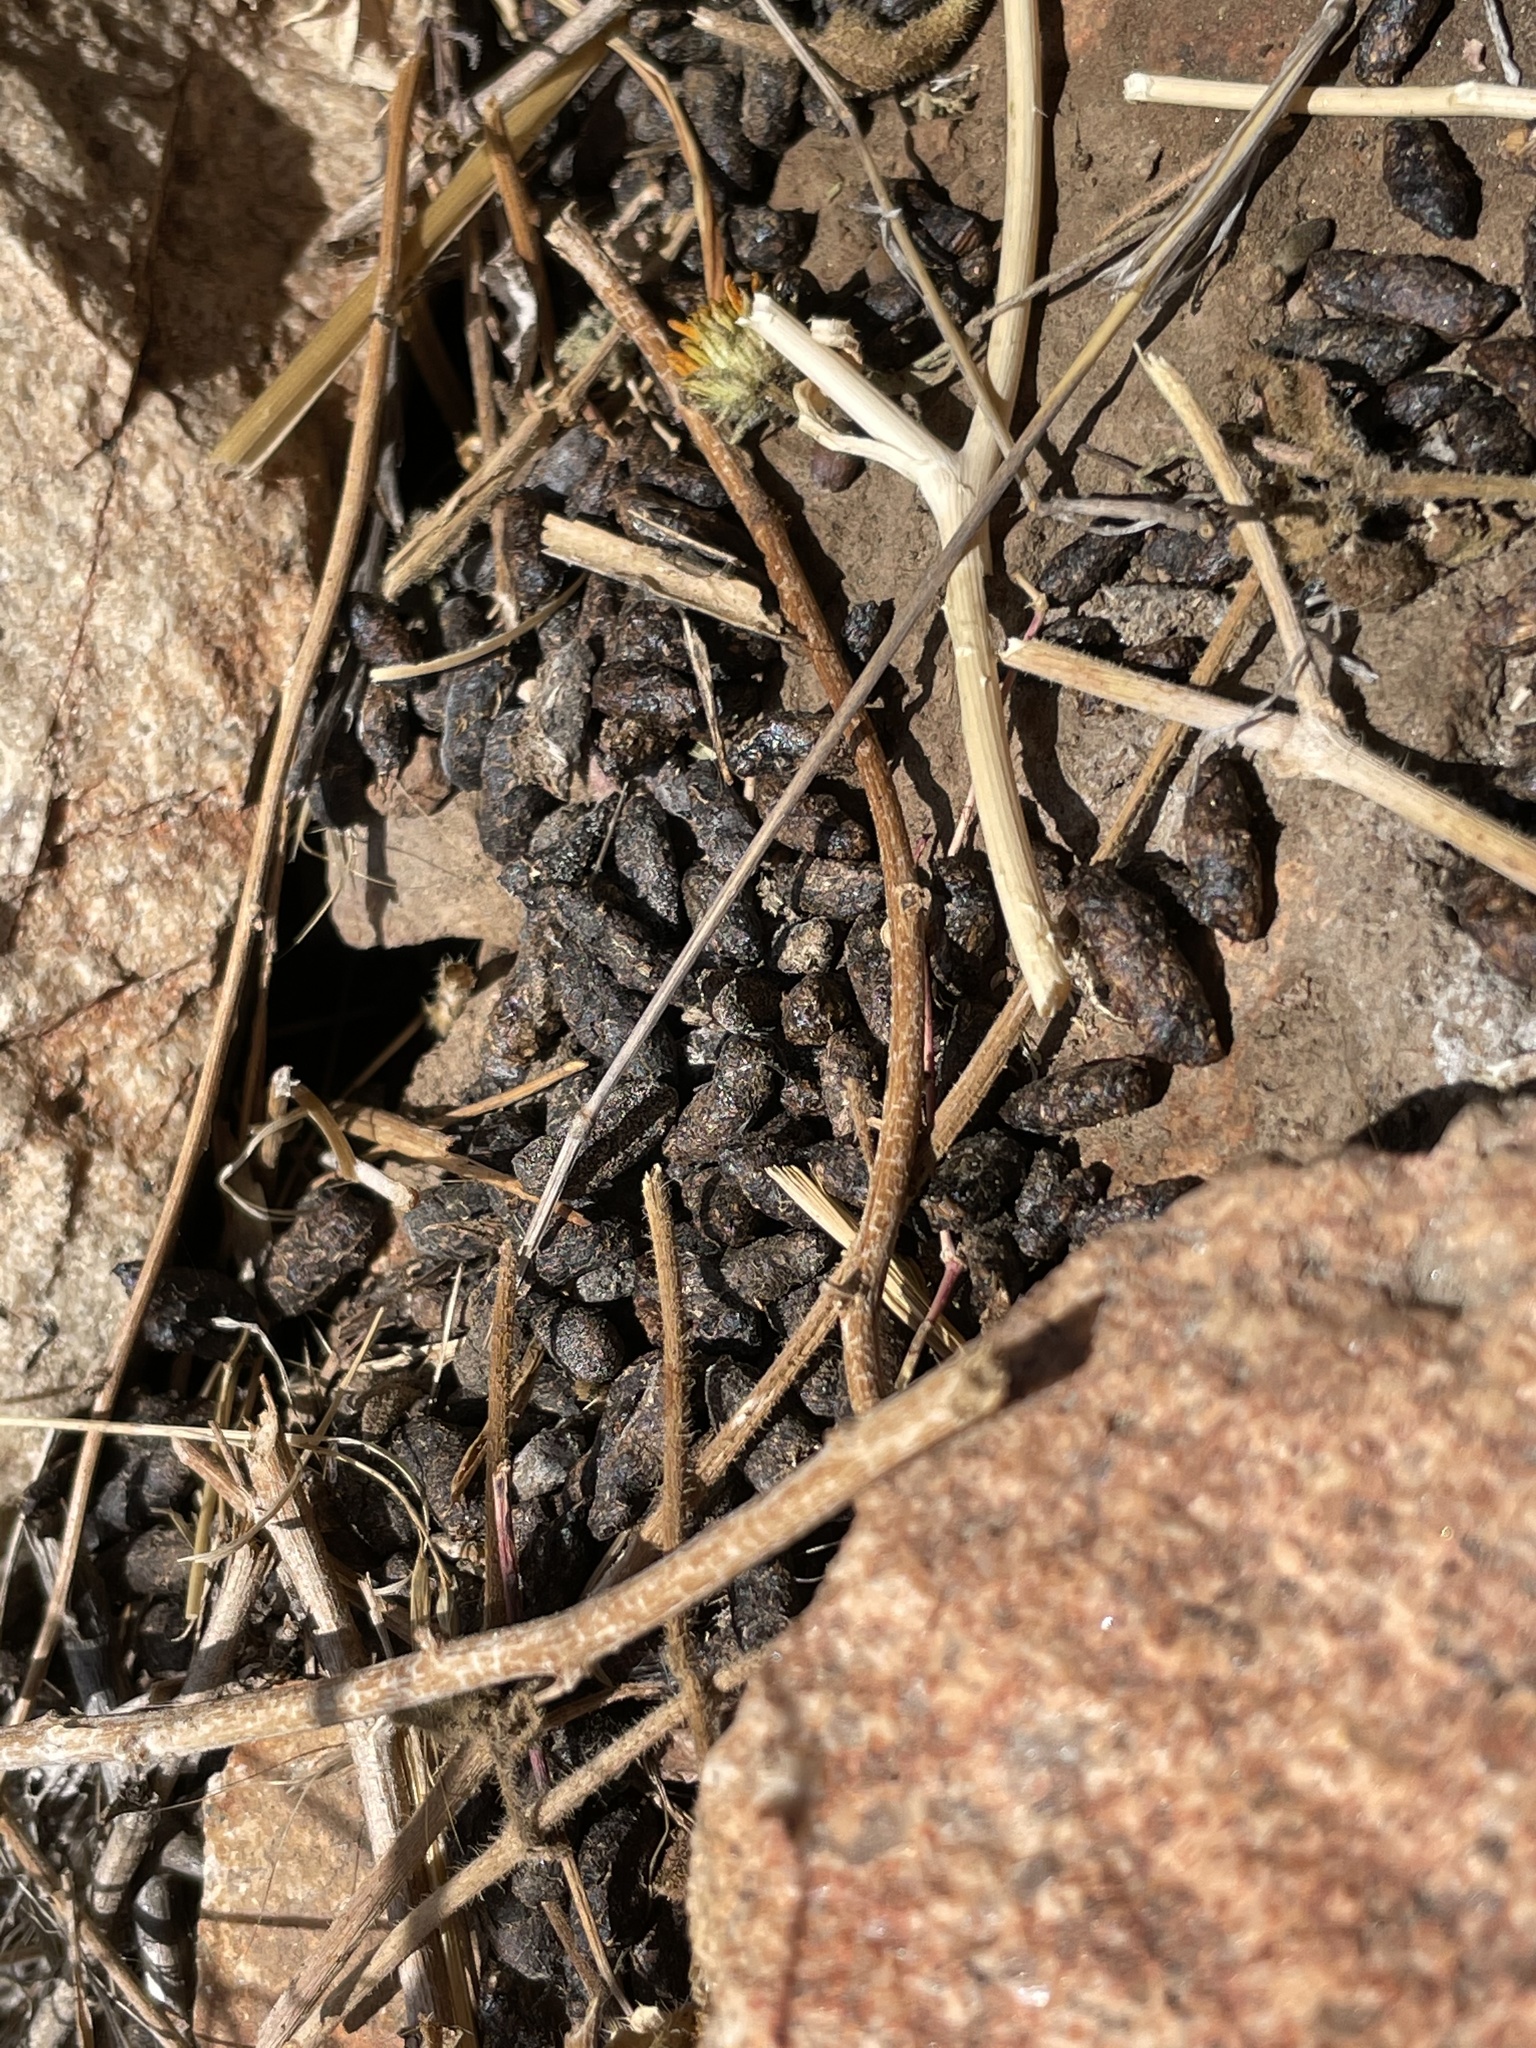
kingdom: Animalia
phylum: Chordata
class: Mammalia
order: Rodentia
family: Cricetidae
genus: Neotoma
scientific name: Neotoma
